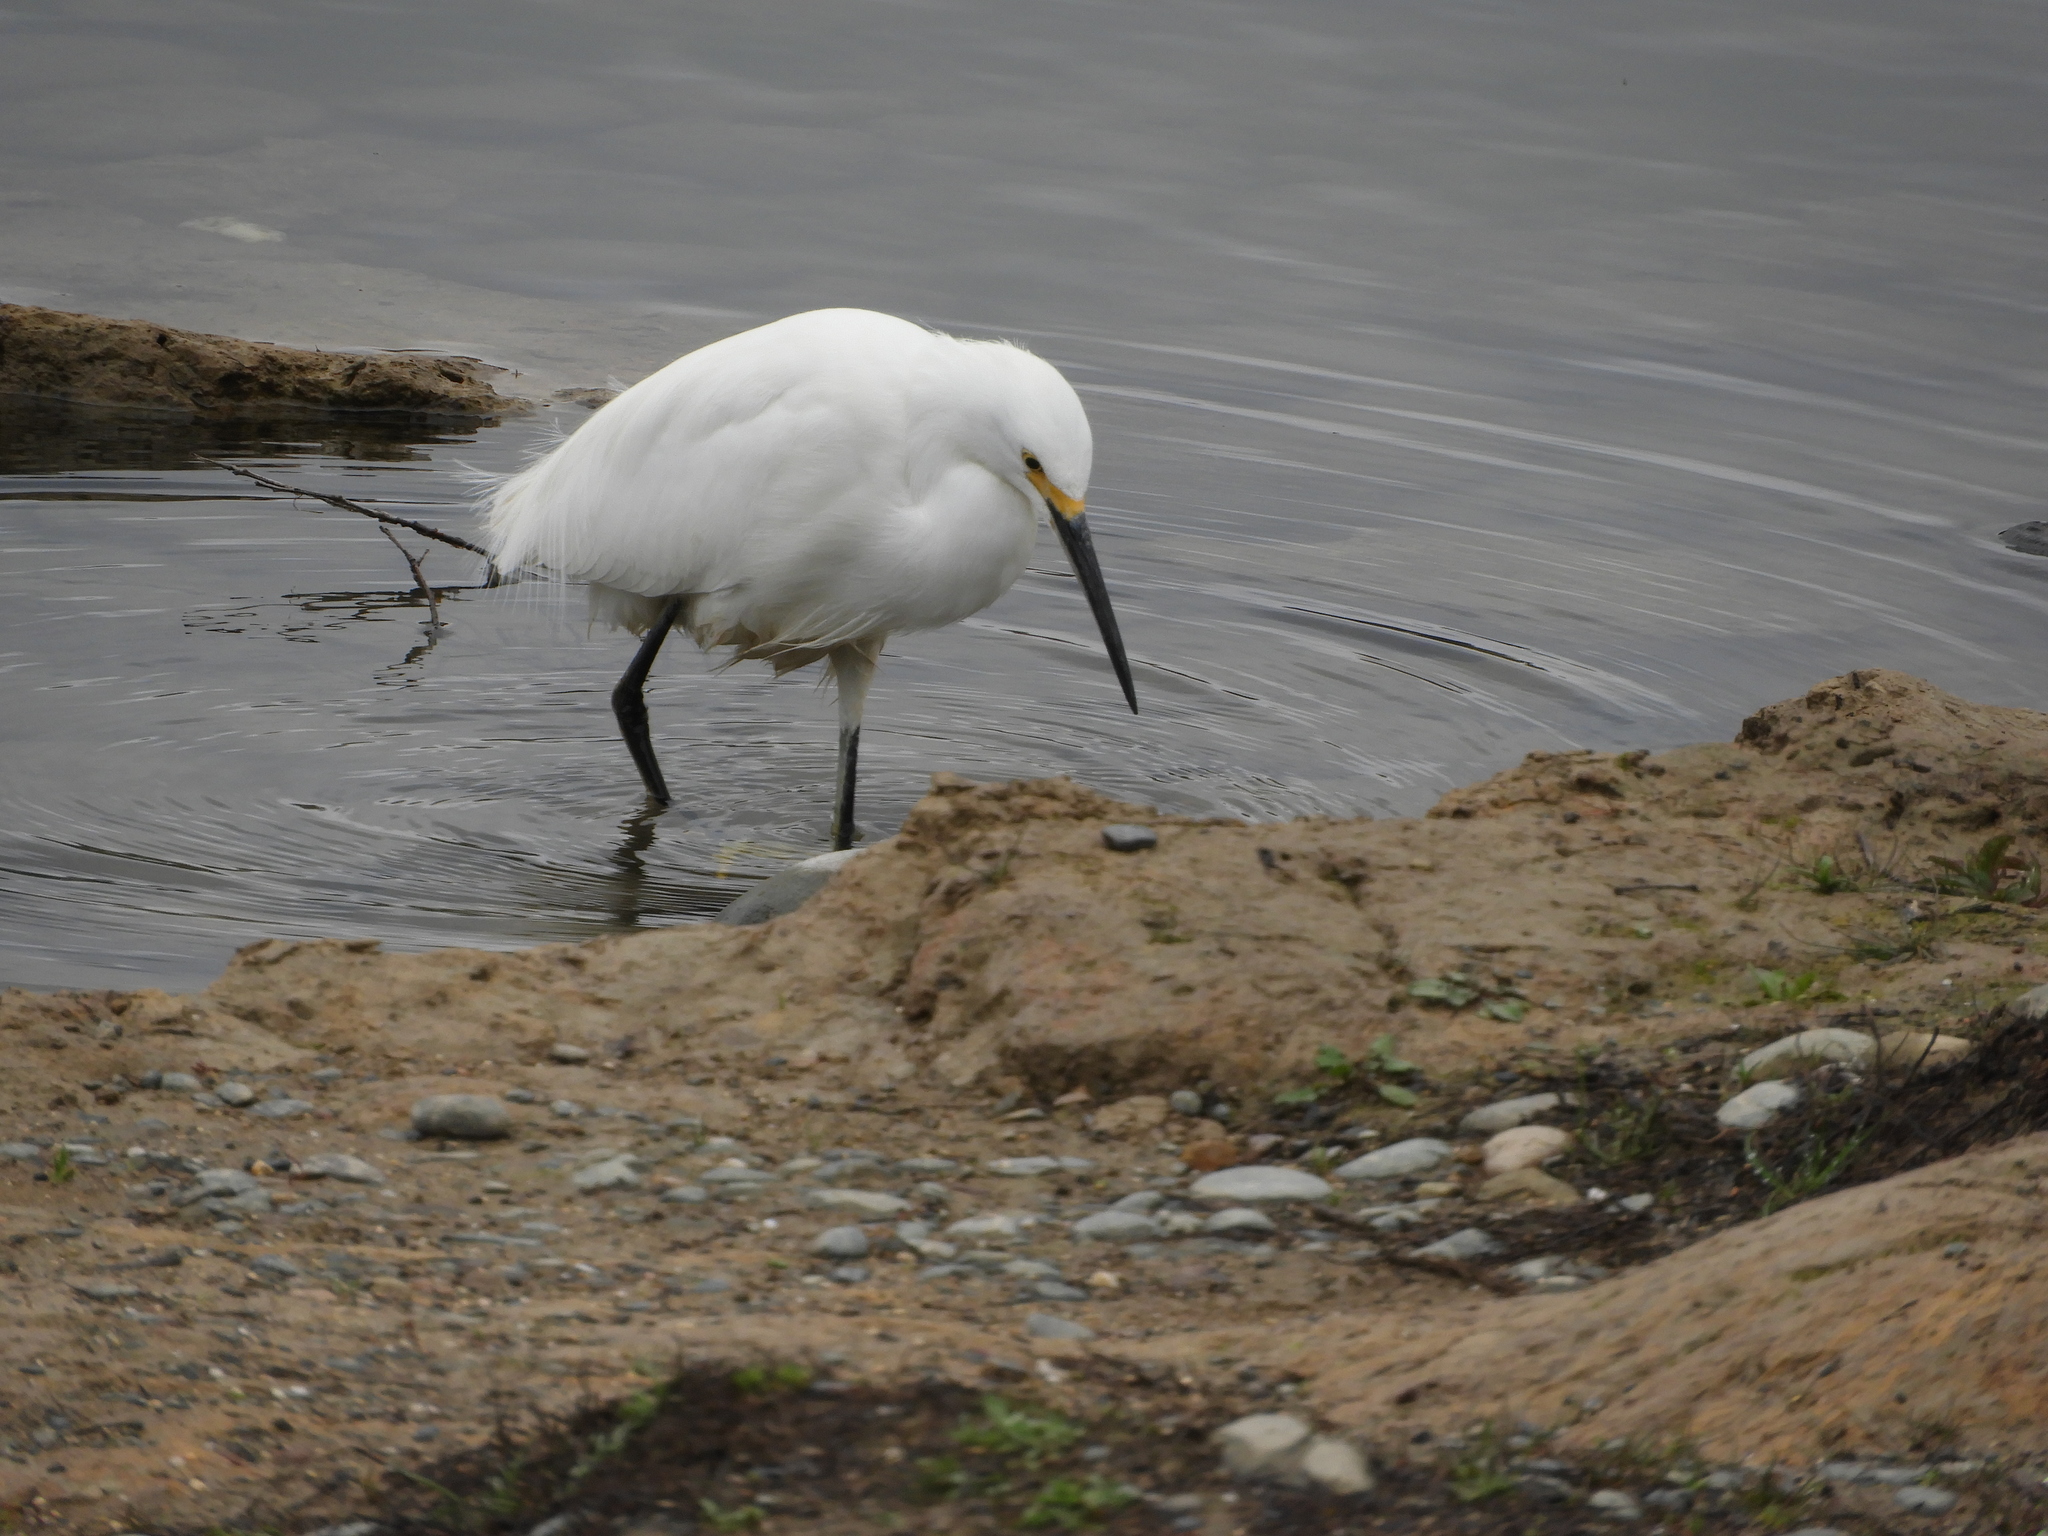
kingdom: Animalia
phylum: Chordata
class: Aves
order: Pelecaniformes
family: Ardeidae
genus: Egretta
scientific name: Egretta thula
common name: Snowy egret
